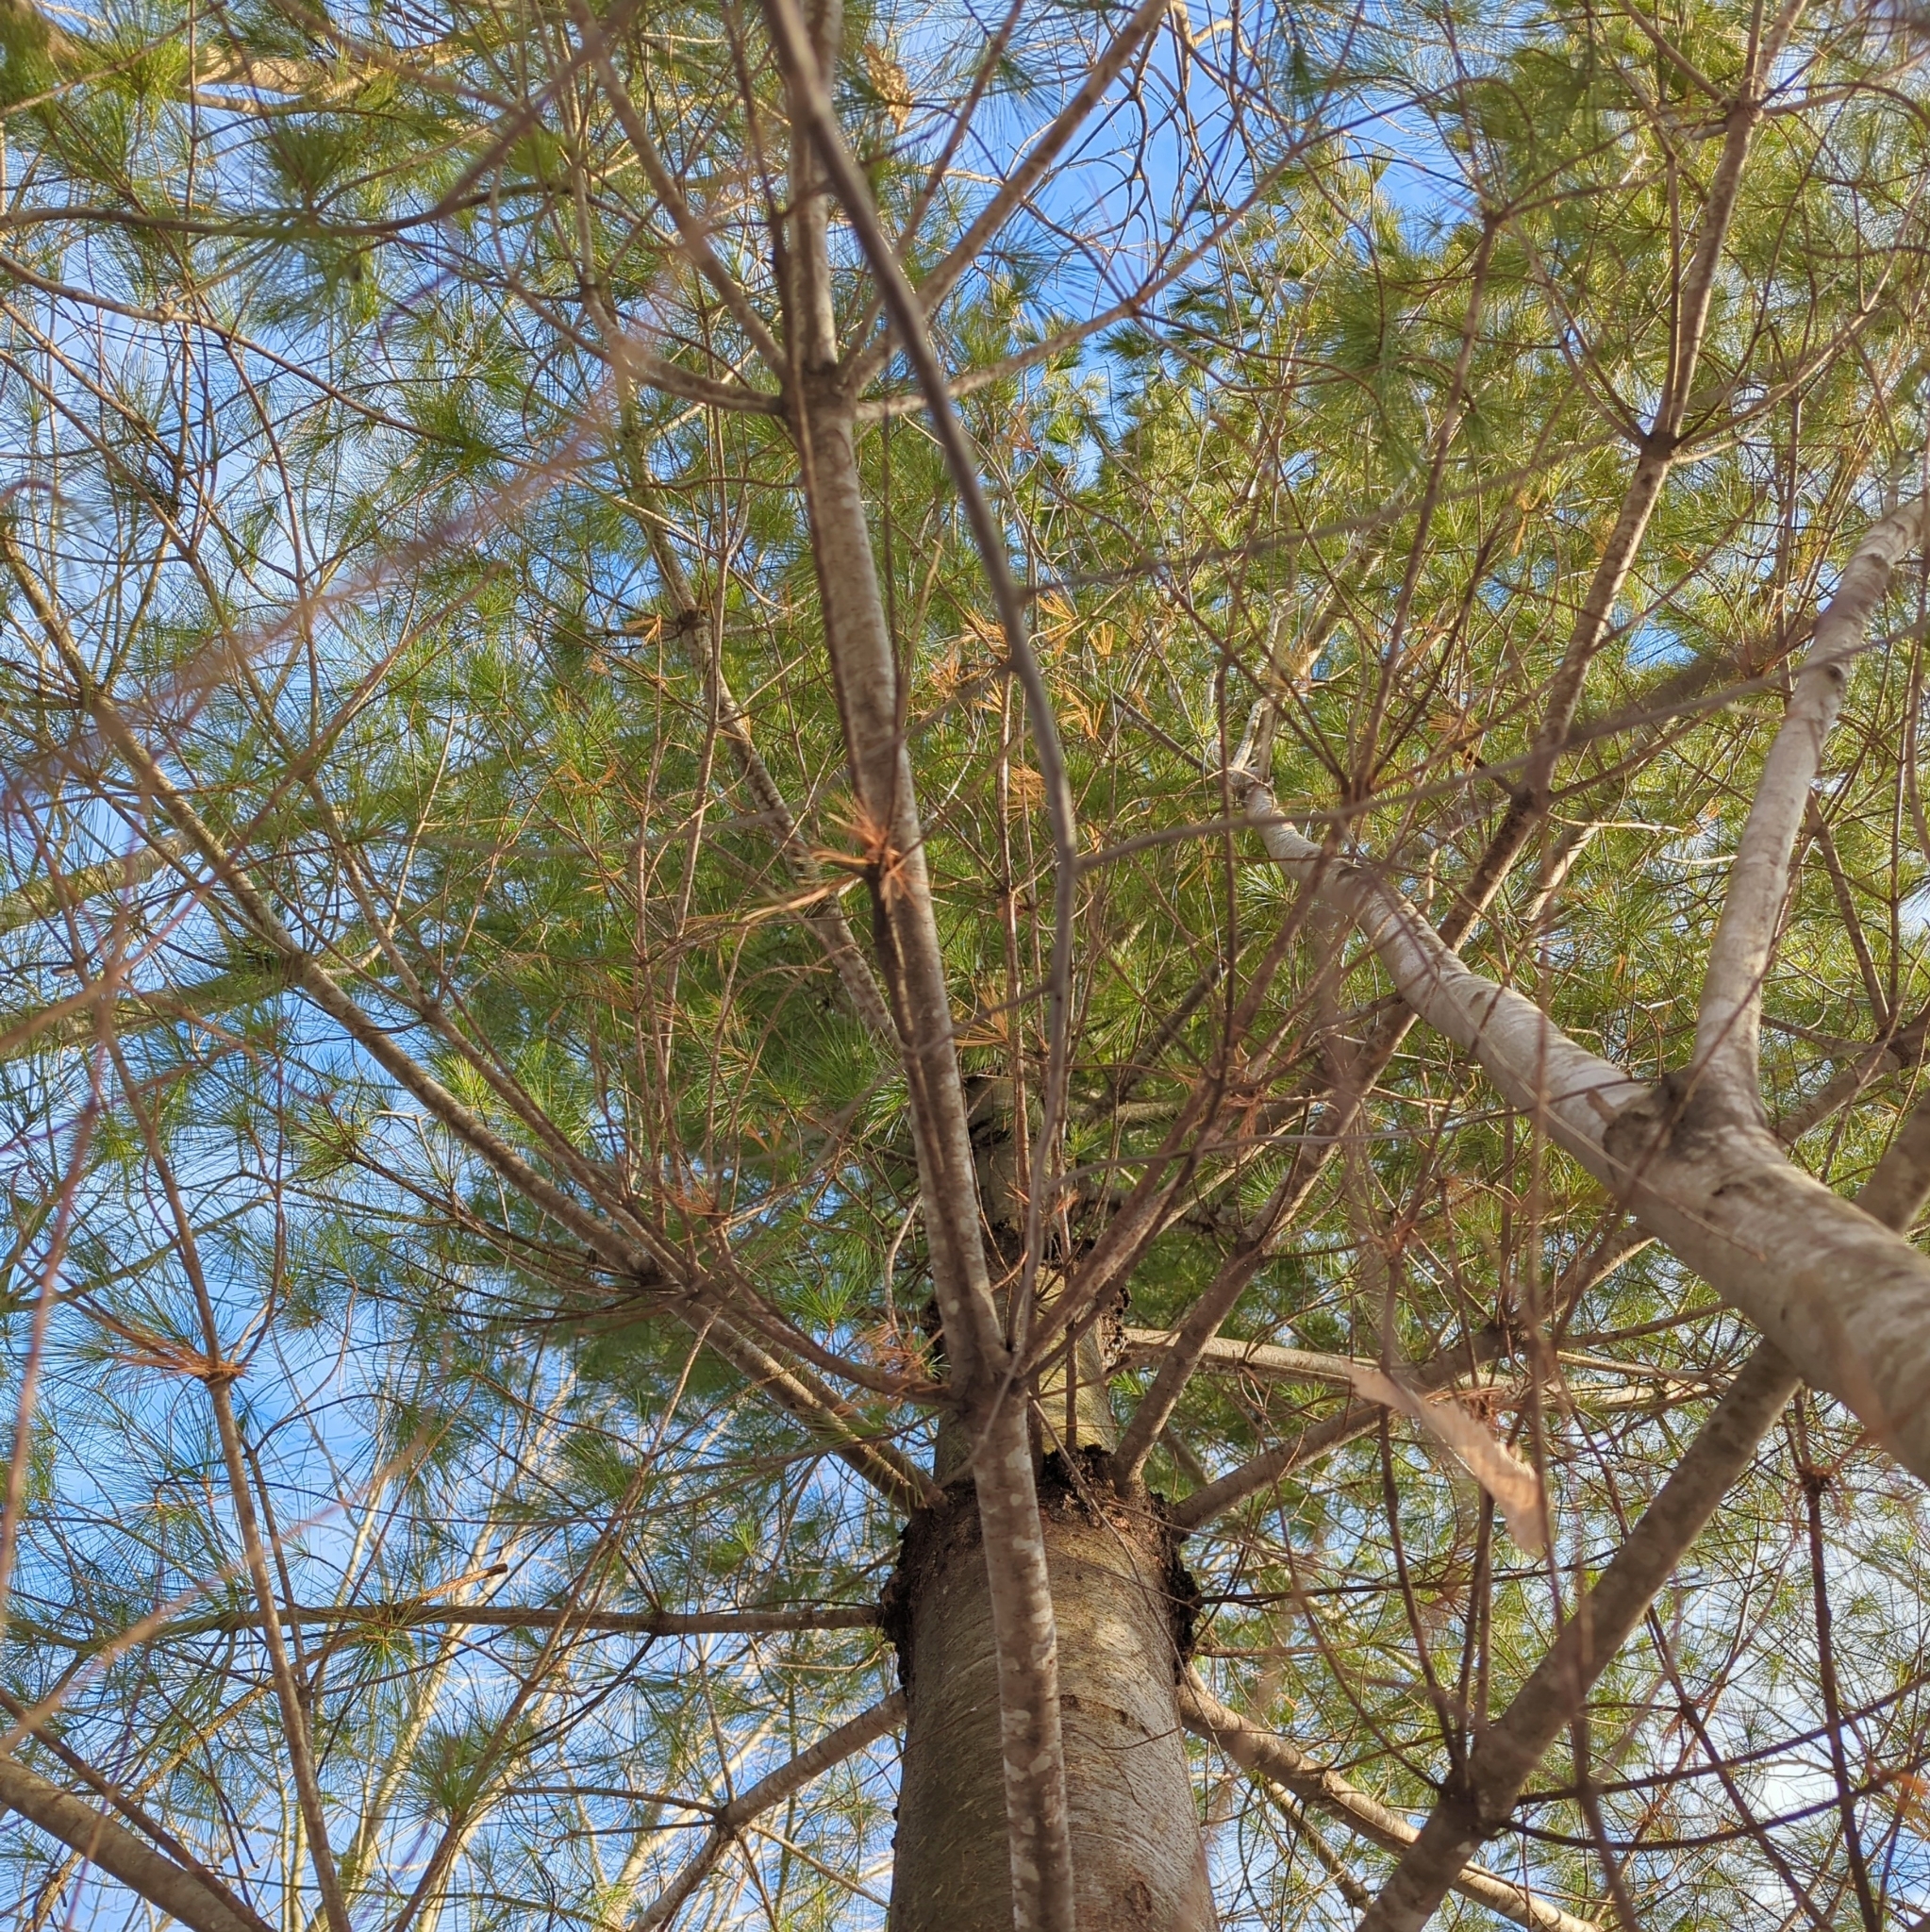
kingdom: Plantae
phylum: Tracheophyta
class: Pinopsida
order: Pinales
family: Pinaceae
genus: Pinus
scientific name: Pinus strobus
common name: Weymouth pine
